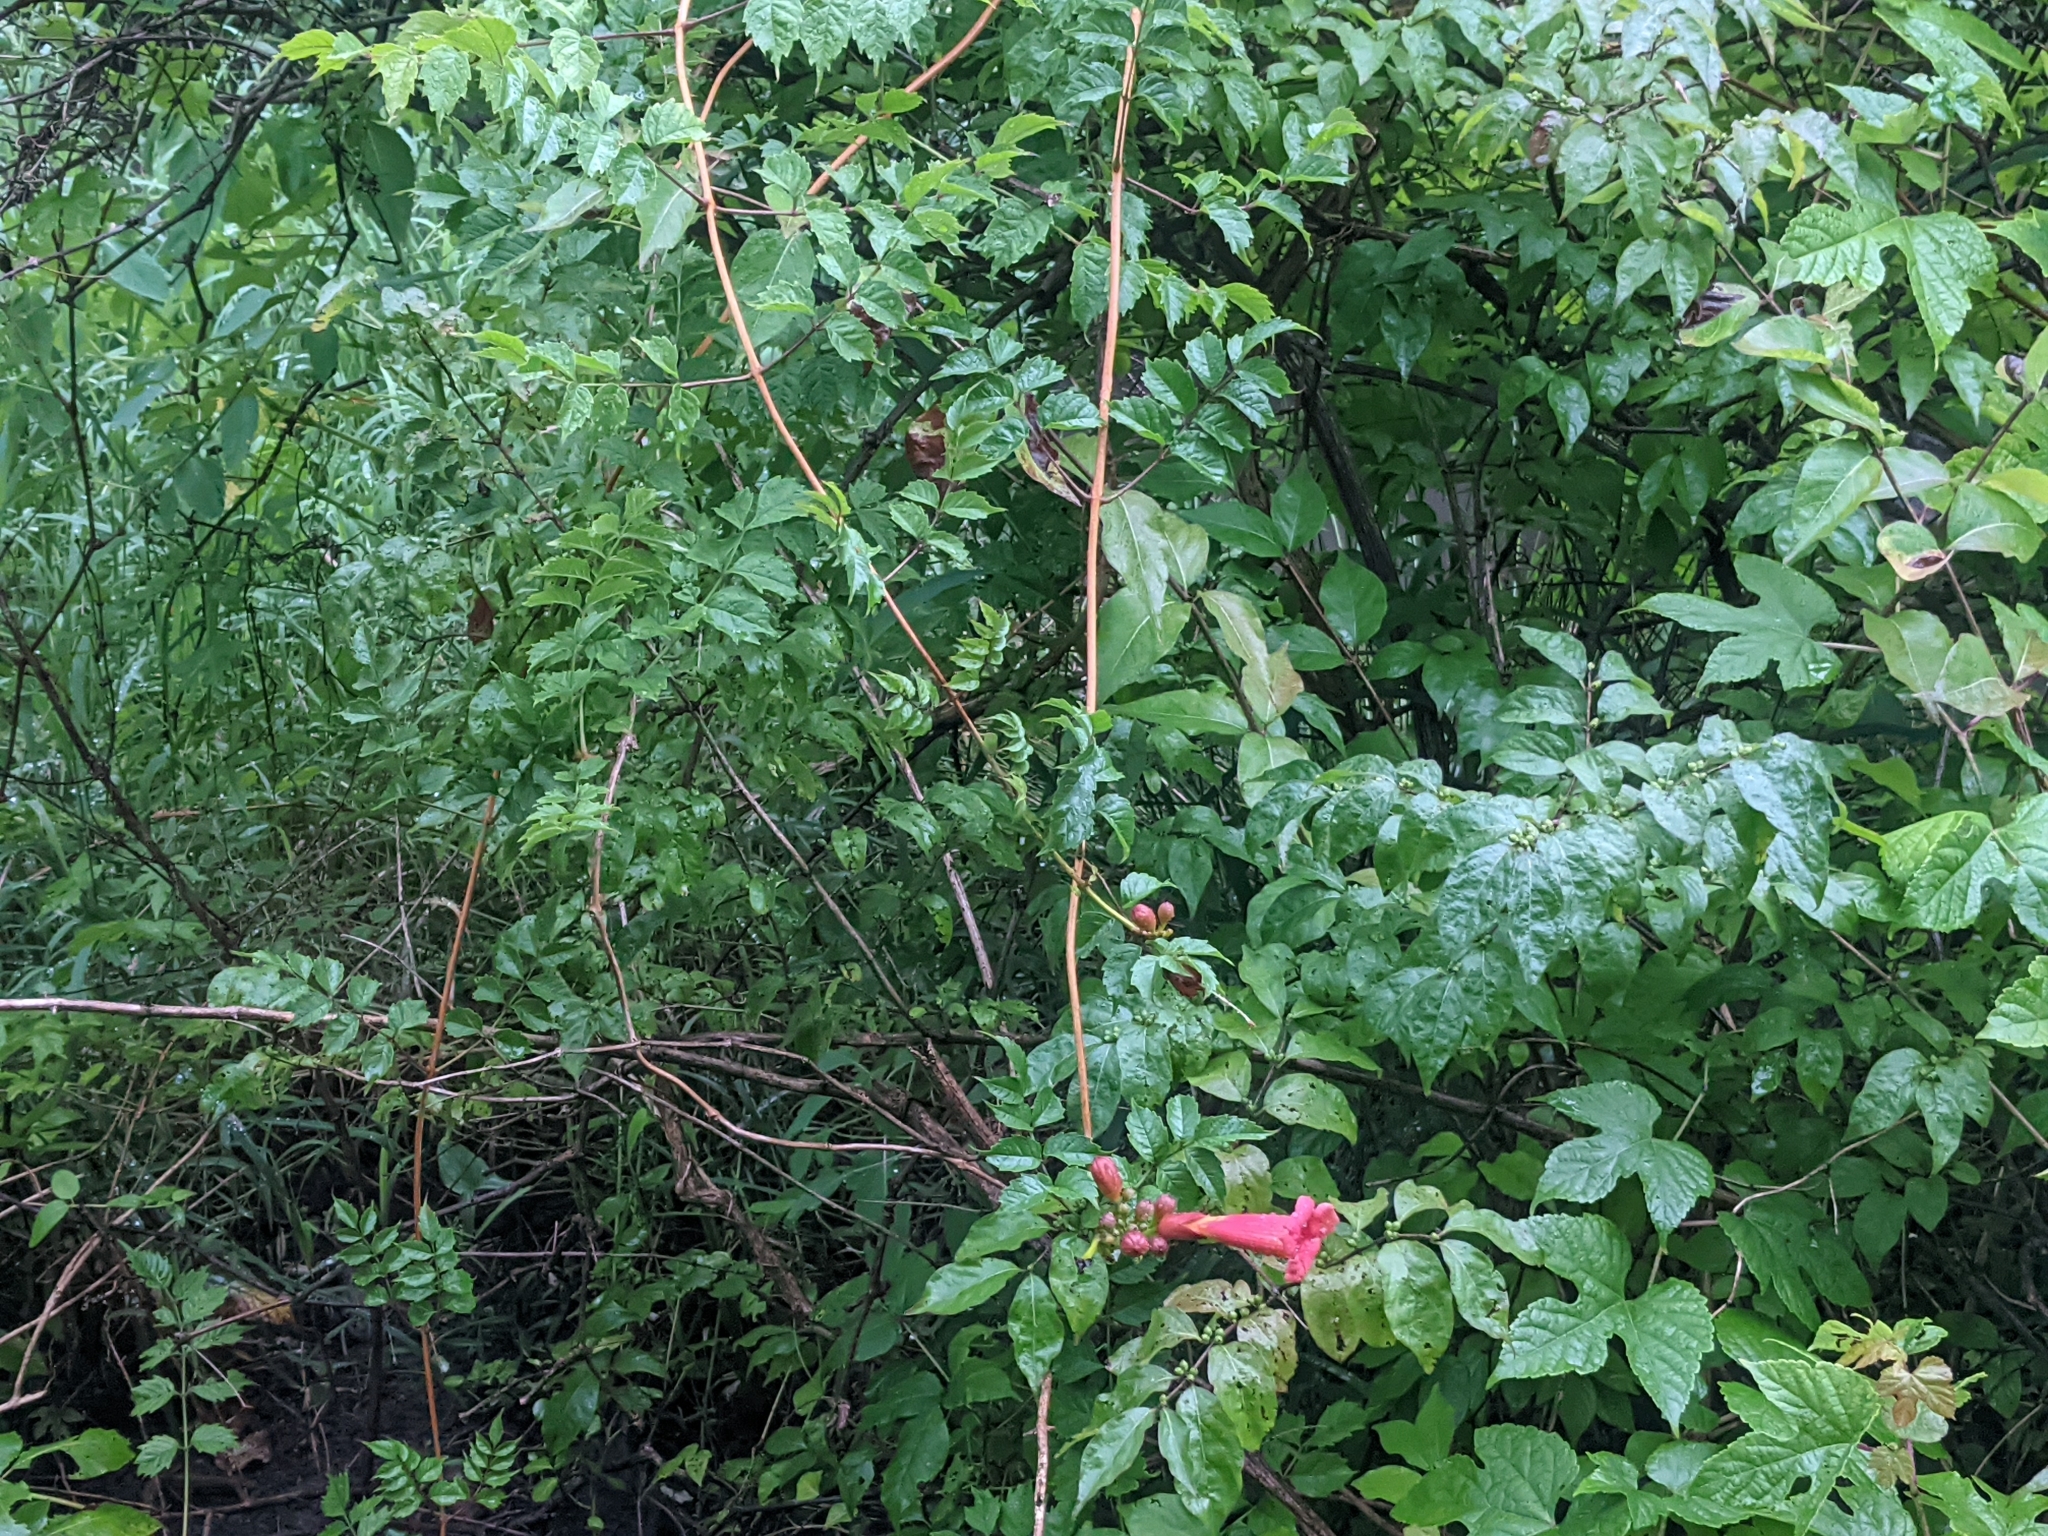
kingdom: Plantae
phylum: Tracheophyta
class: Magnoliopsida
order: Lamiales
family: Bignoniaceae
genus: Campsis
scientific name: Campsis radicans
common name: Trumpet-creeper
